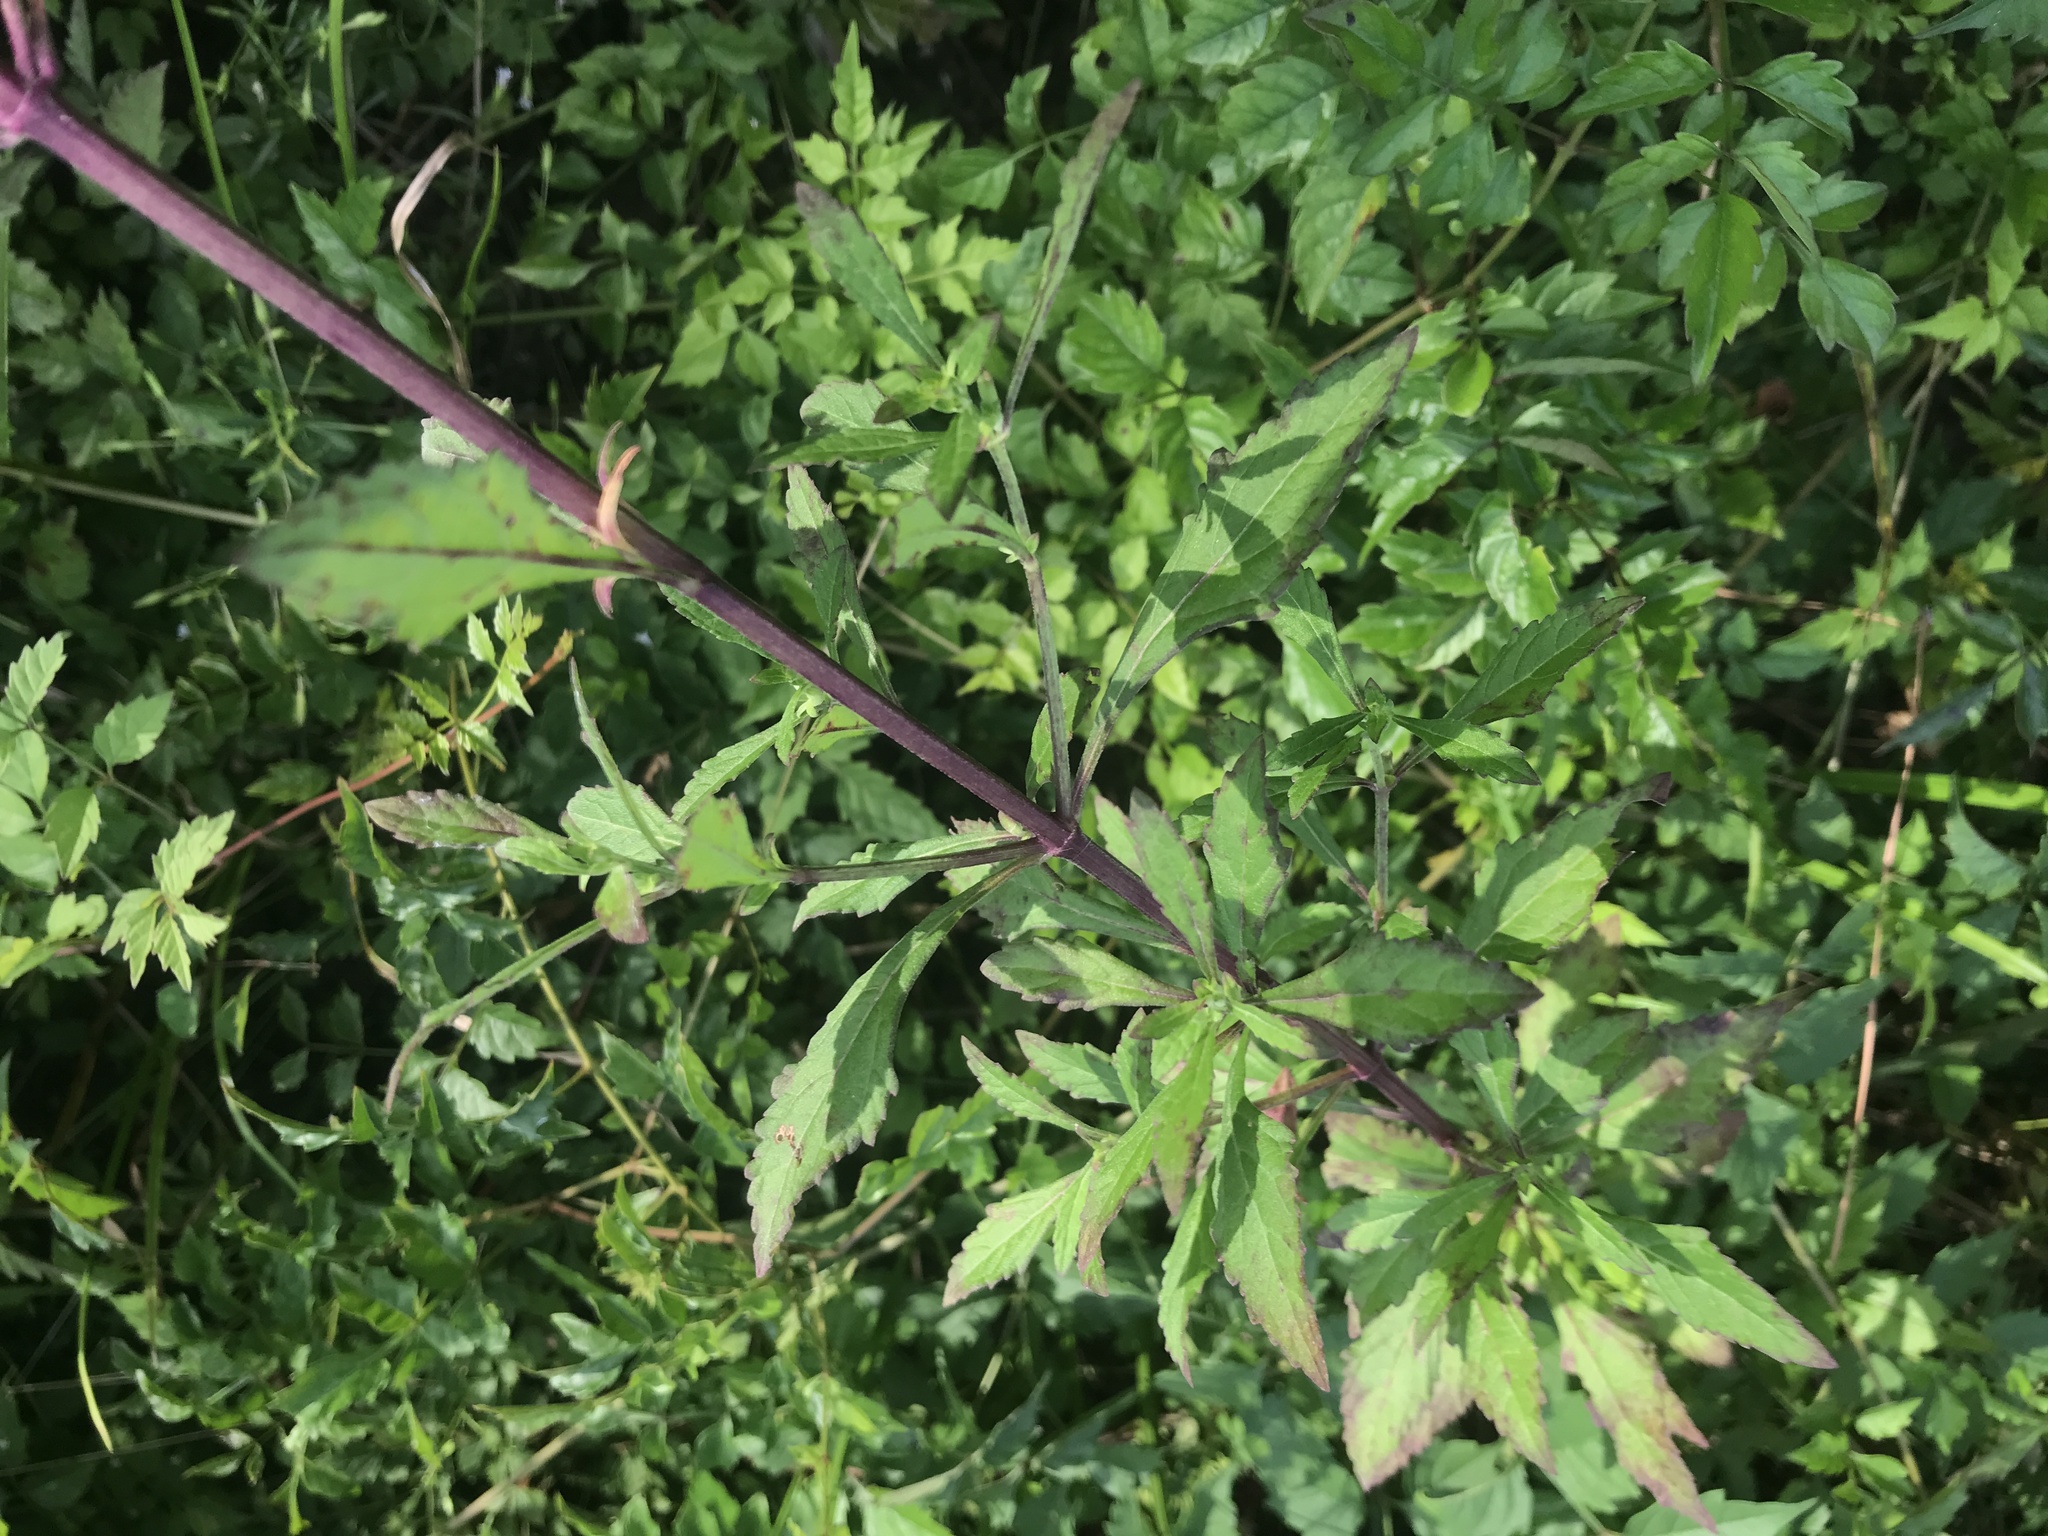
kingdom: Plantae
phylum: Tracheophyta
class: Magnoliopsida
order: Lamiales
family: Lamiaceae
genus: Hyptis
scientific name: Hyptis alata
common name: Cluster bush-mint
